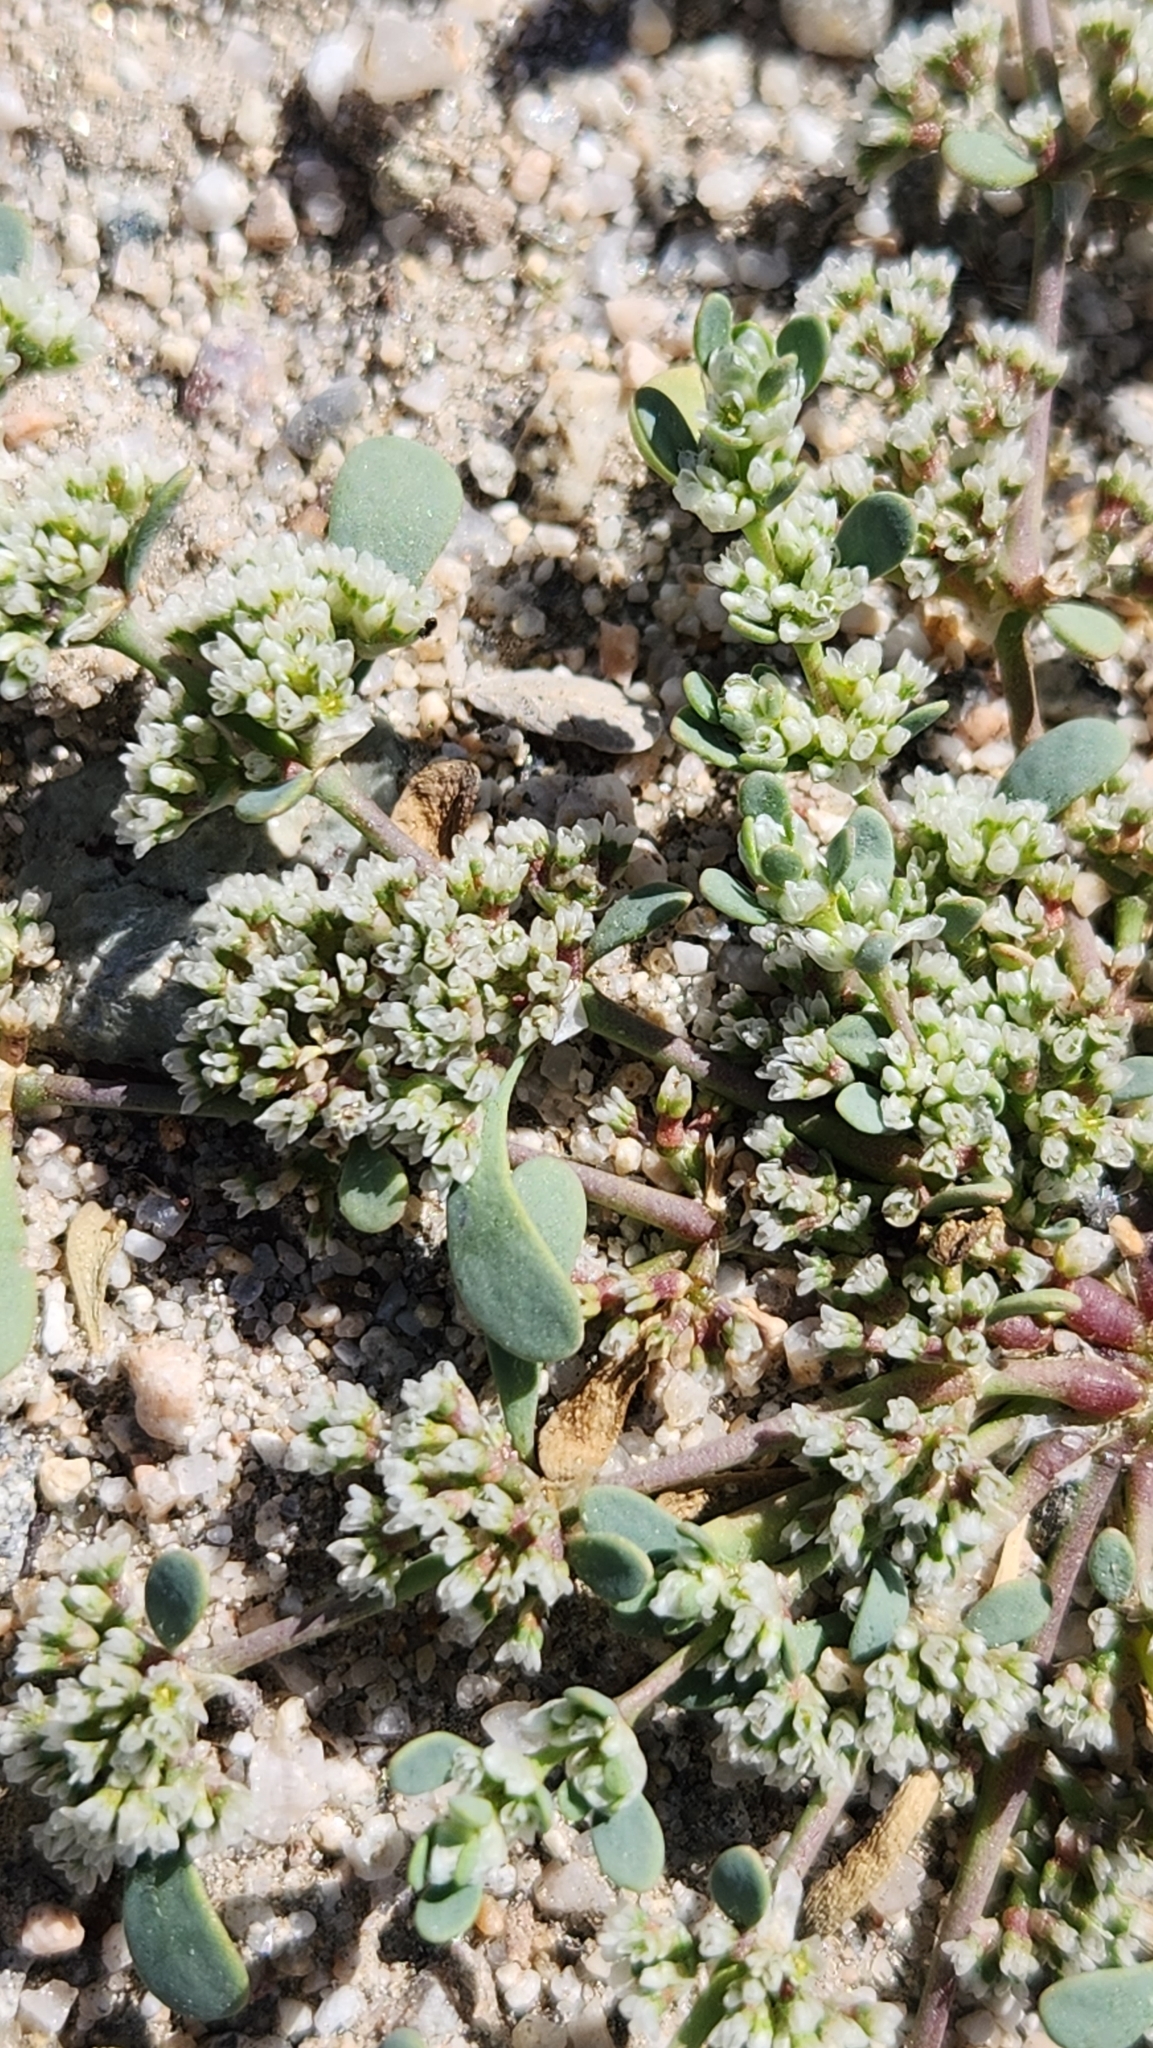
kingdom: Plantae
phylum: Tracheophyta
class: Magnoliopsida
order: Caryophyllales
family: Caryophyllaceae
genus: Achyronychia
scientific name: Achyronychia cooperi
